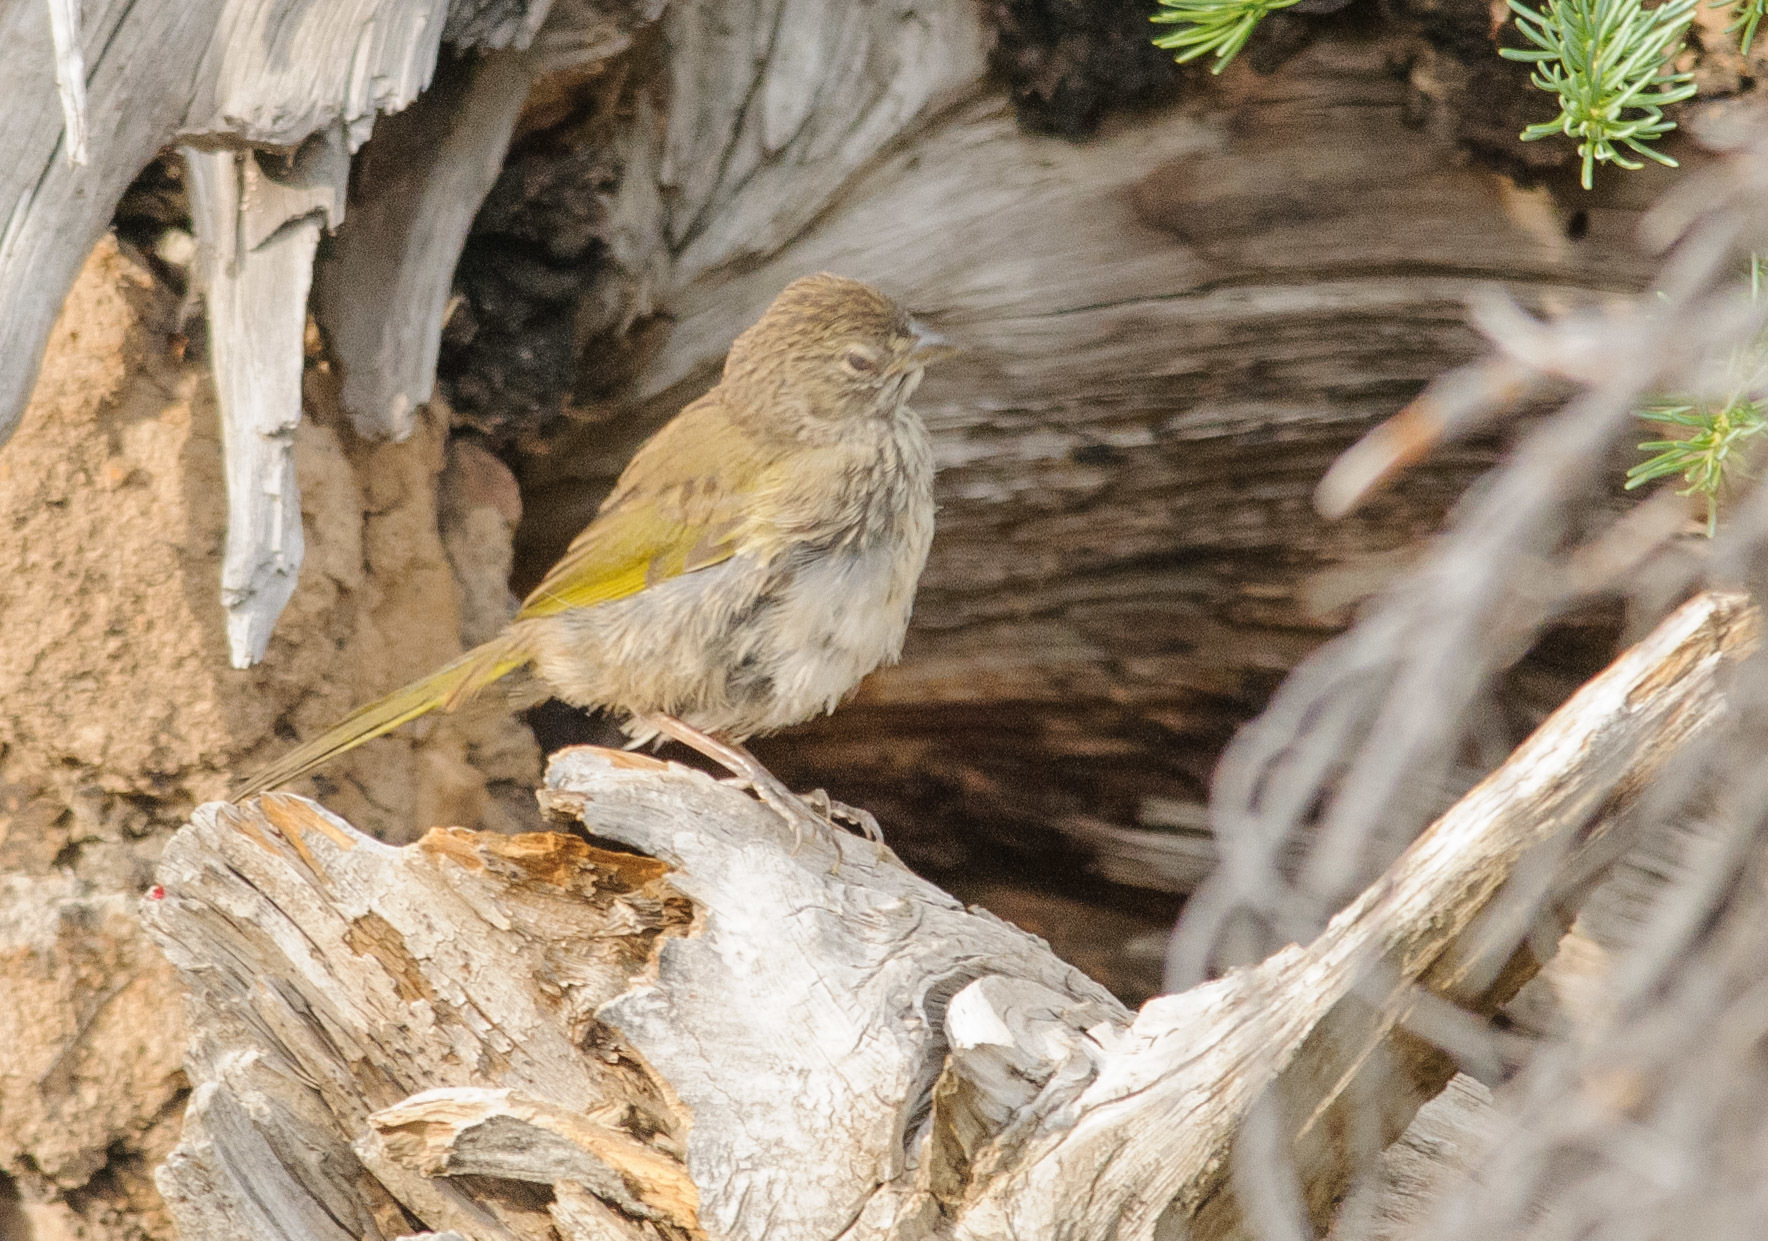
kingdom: Animalia
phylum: Chordata
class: Aves
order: Passeriformes
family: Passerellidae
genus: Pipilo
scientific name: Pipilo chlorurus
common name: Green-tailed towhee
